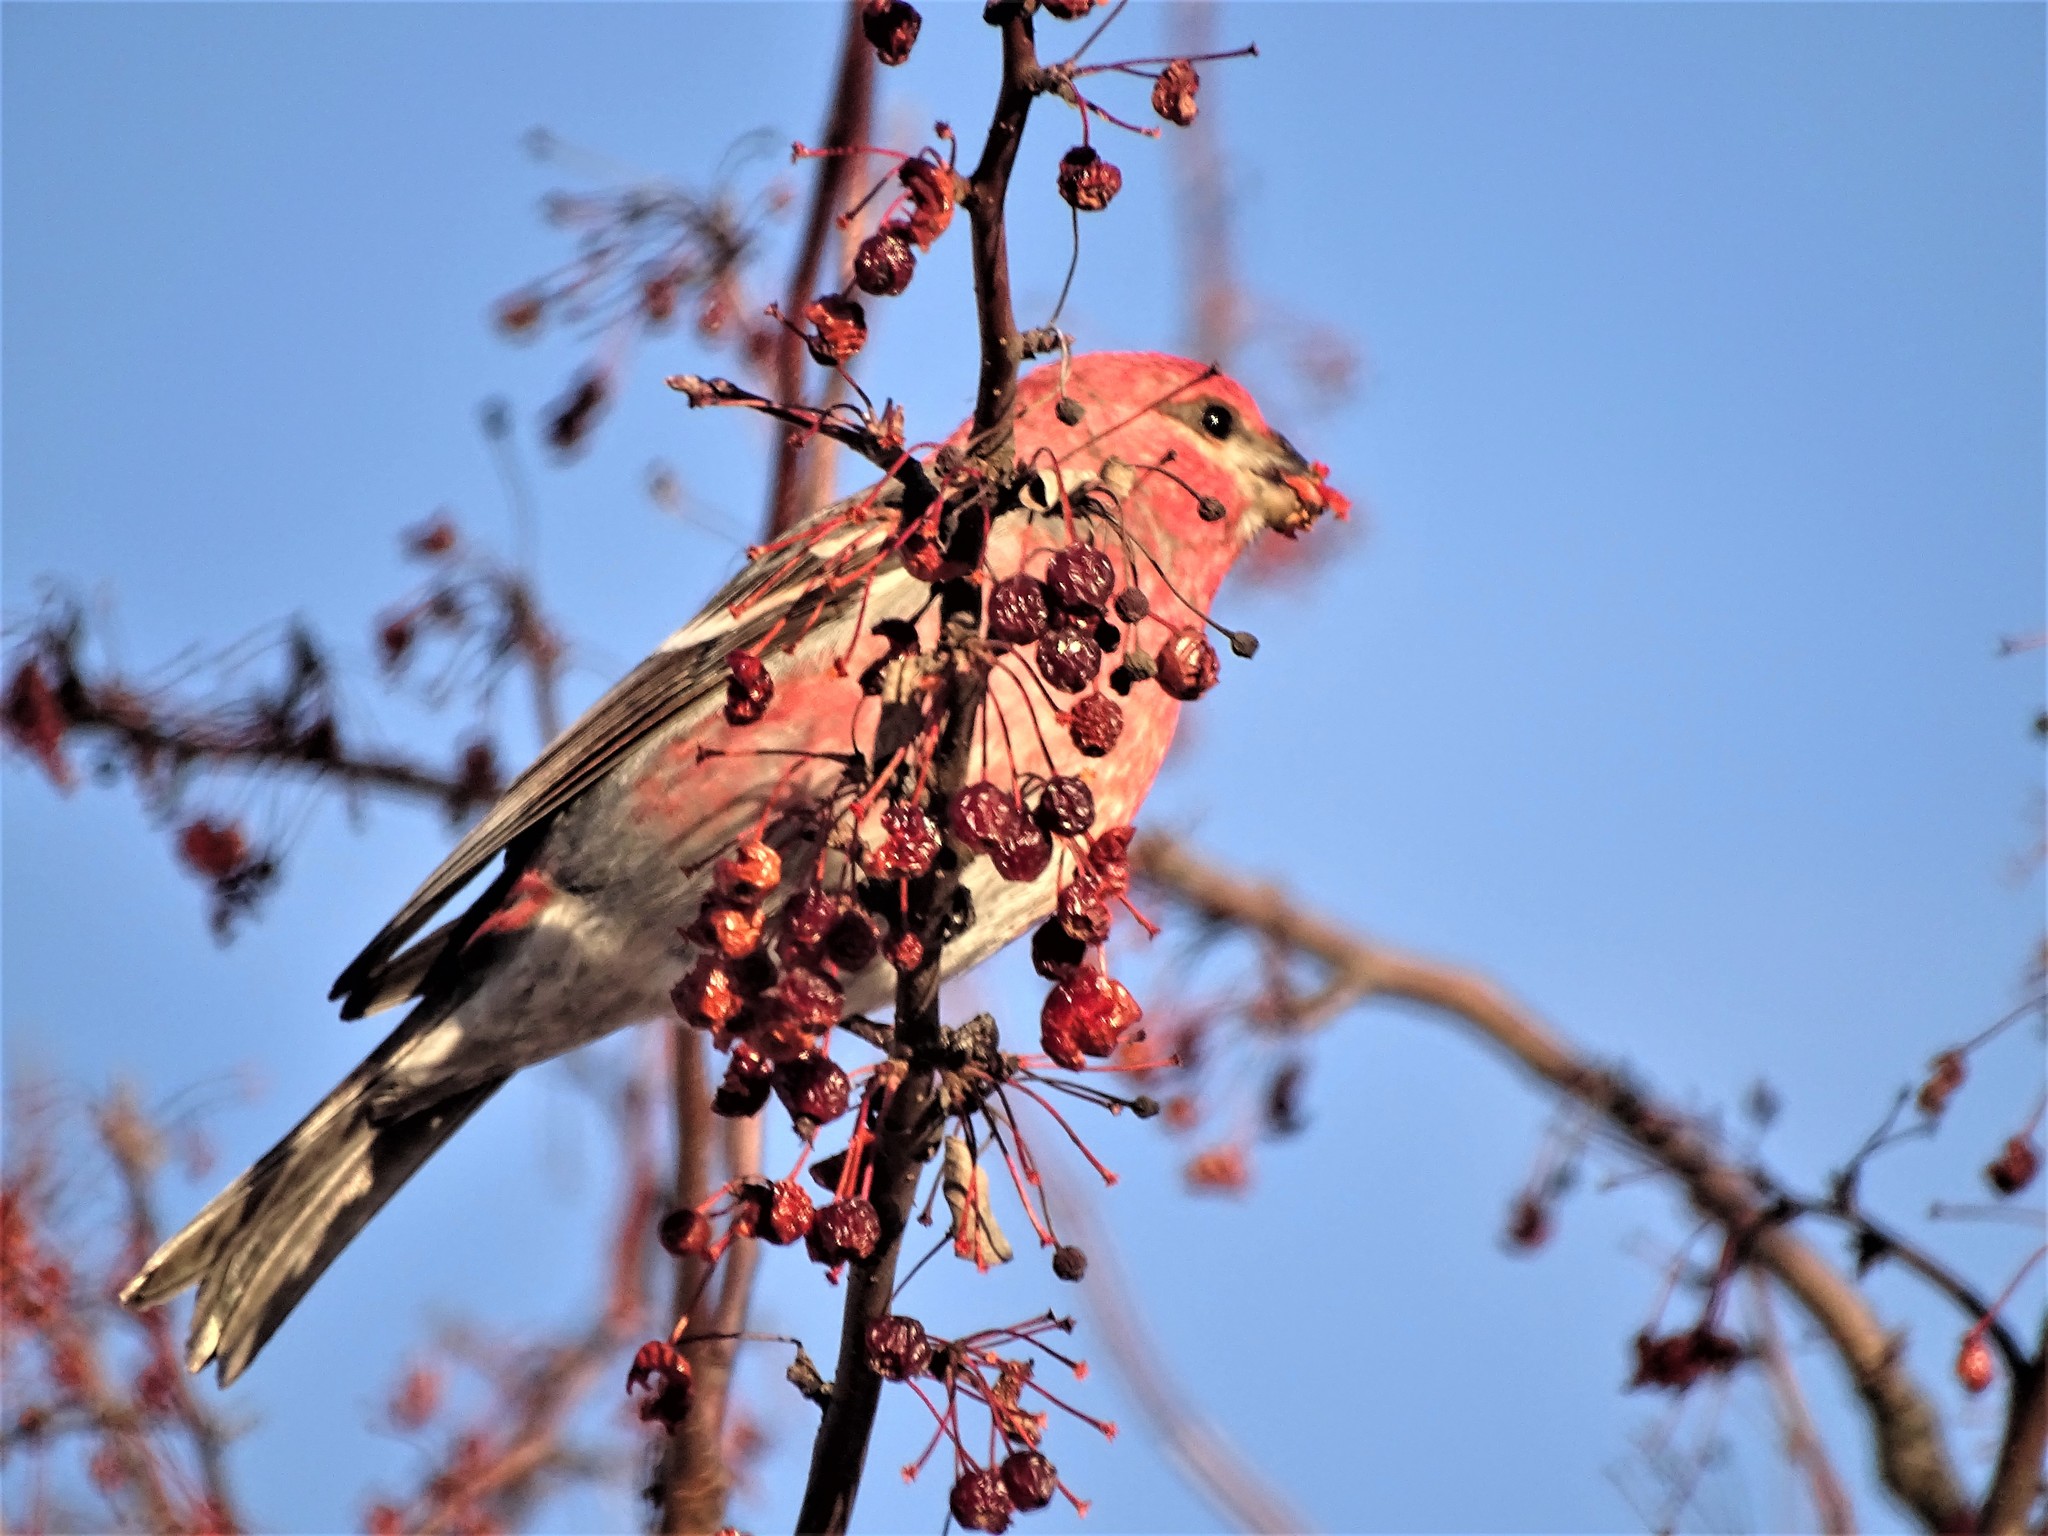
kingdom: Animalia
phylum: Chordata
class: Aves
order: Passeriformes
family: Fringillidae
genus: Pinicola
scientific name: Pinicola enucleator
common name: Pine grosbeak
